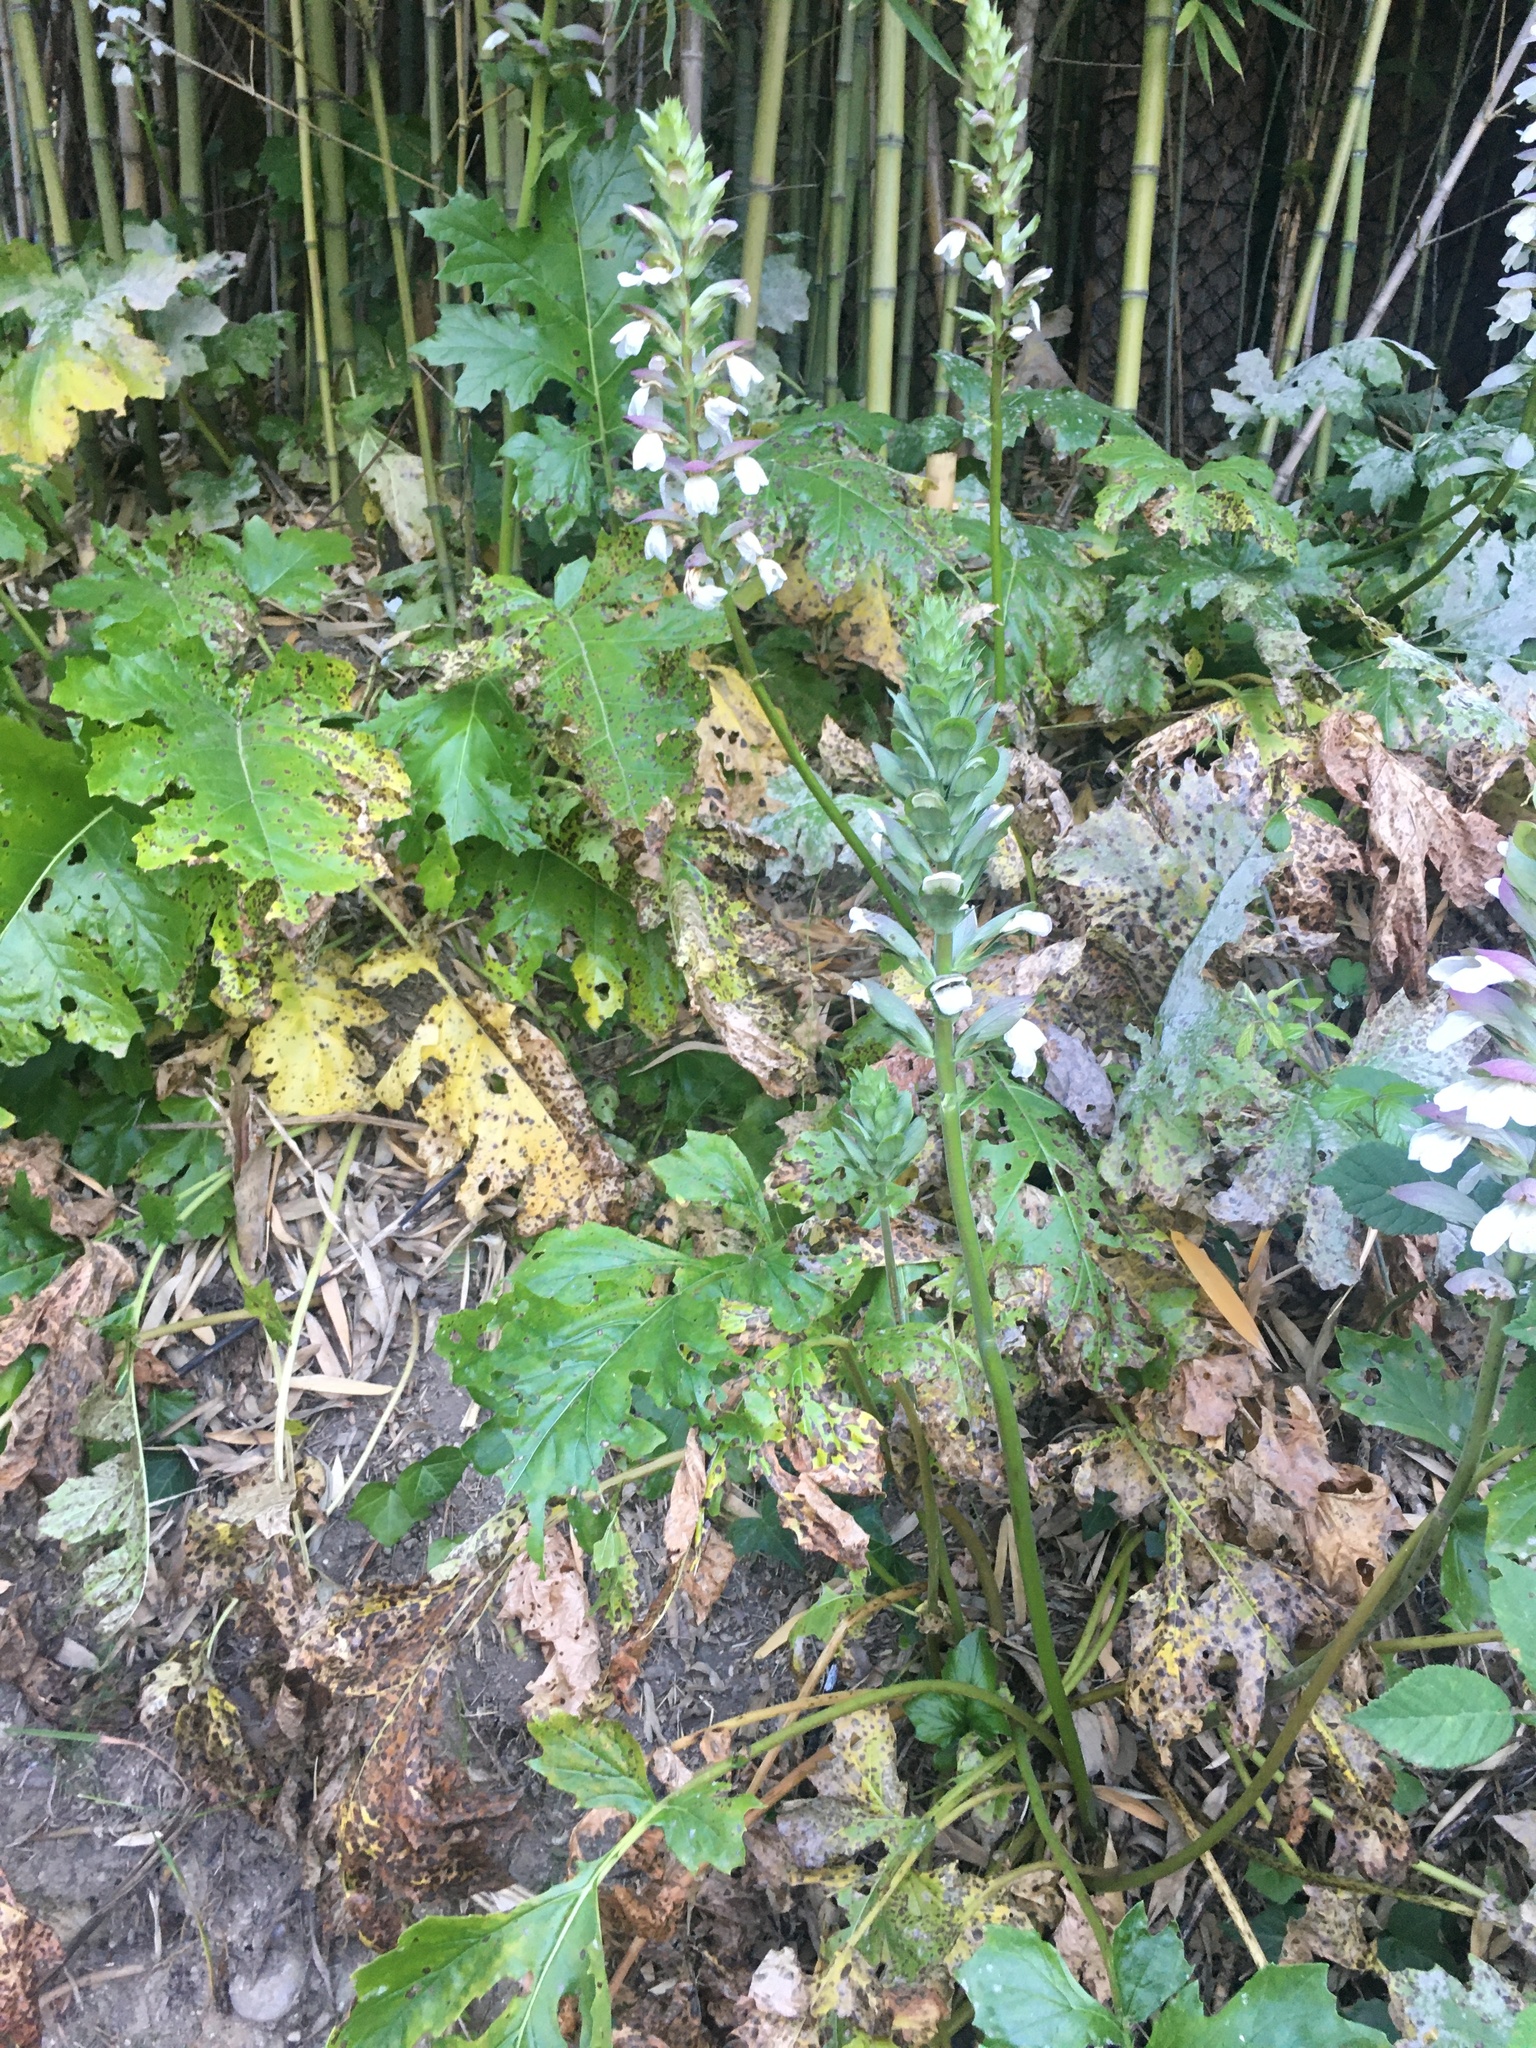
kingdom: Plantae
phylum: Tracheophyta
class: Magnoliopsida
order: Lamiales
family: Acanthaceae
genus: Acanthus
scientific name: Acanthus mollis
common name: Bear's-breech
